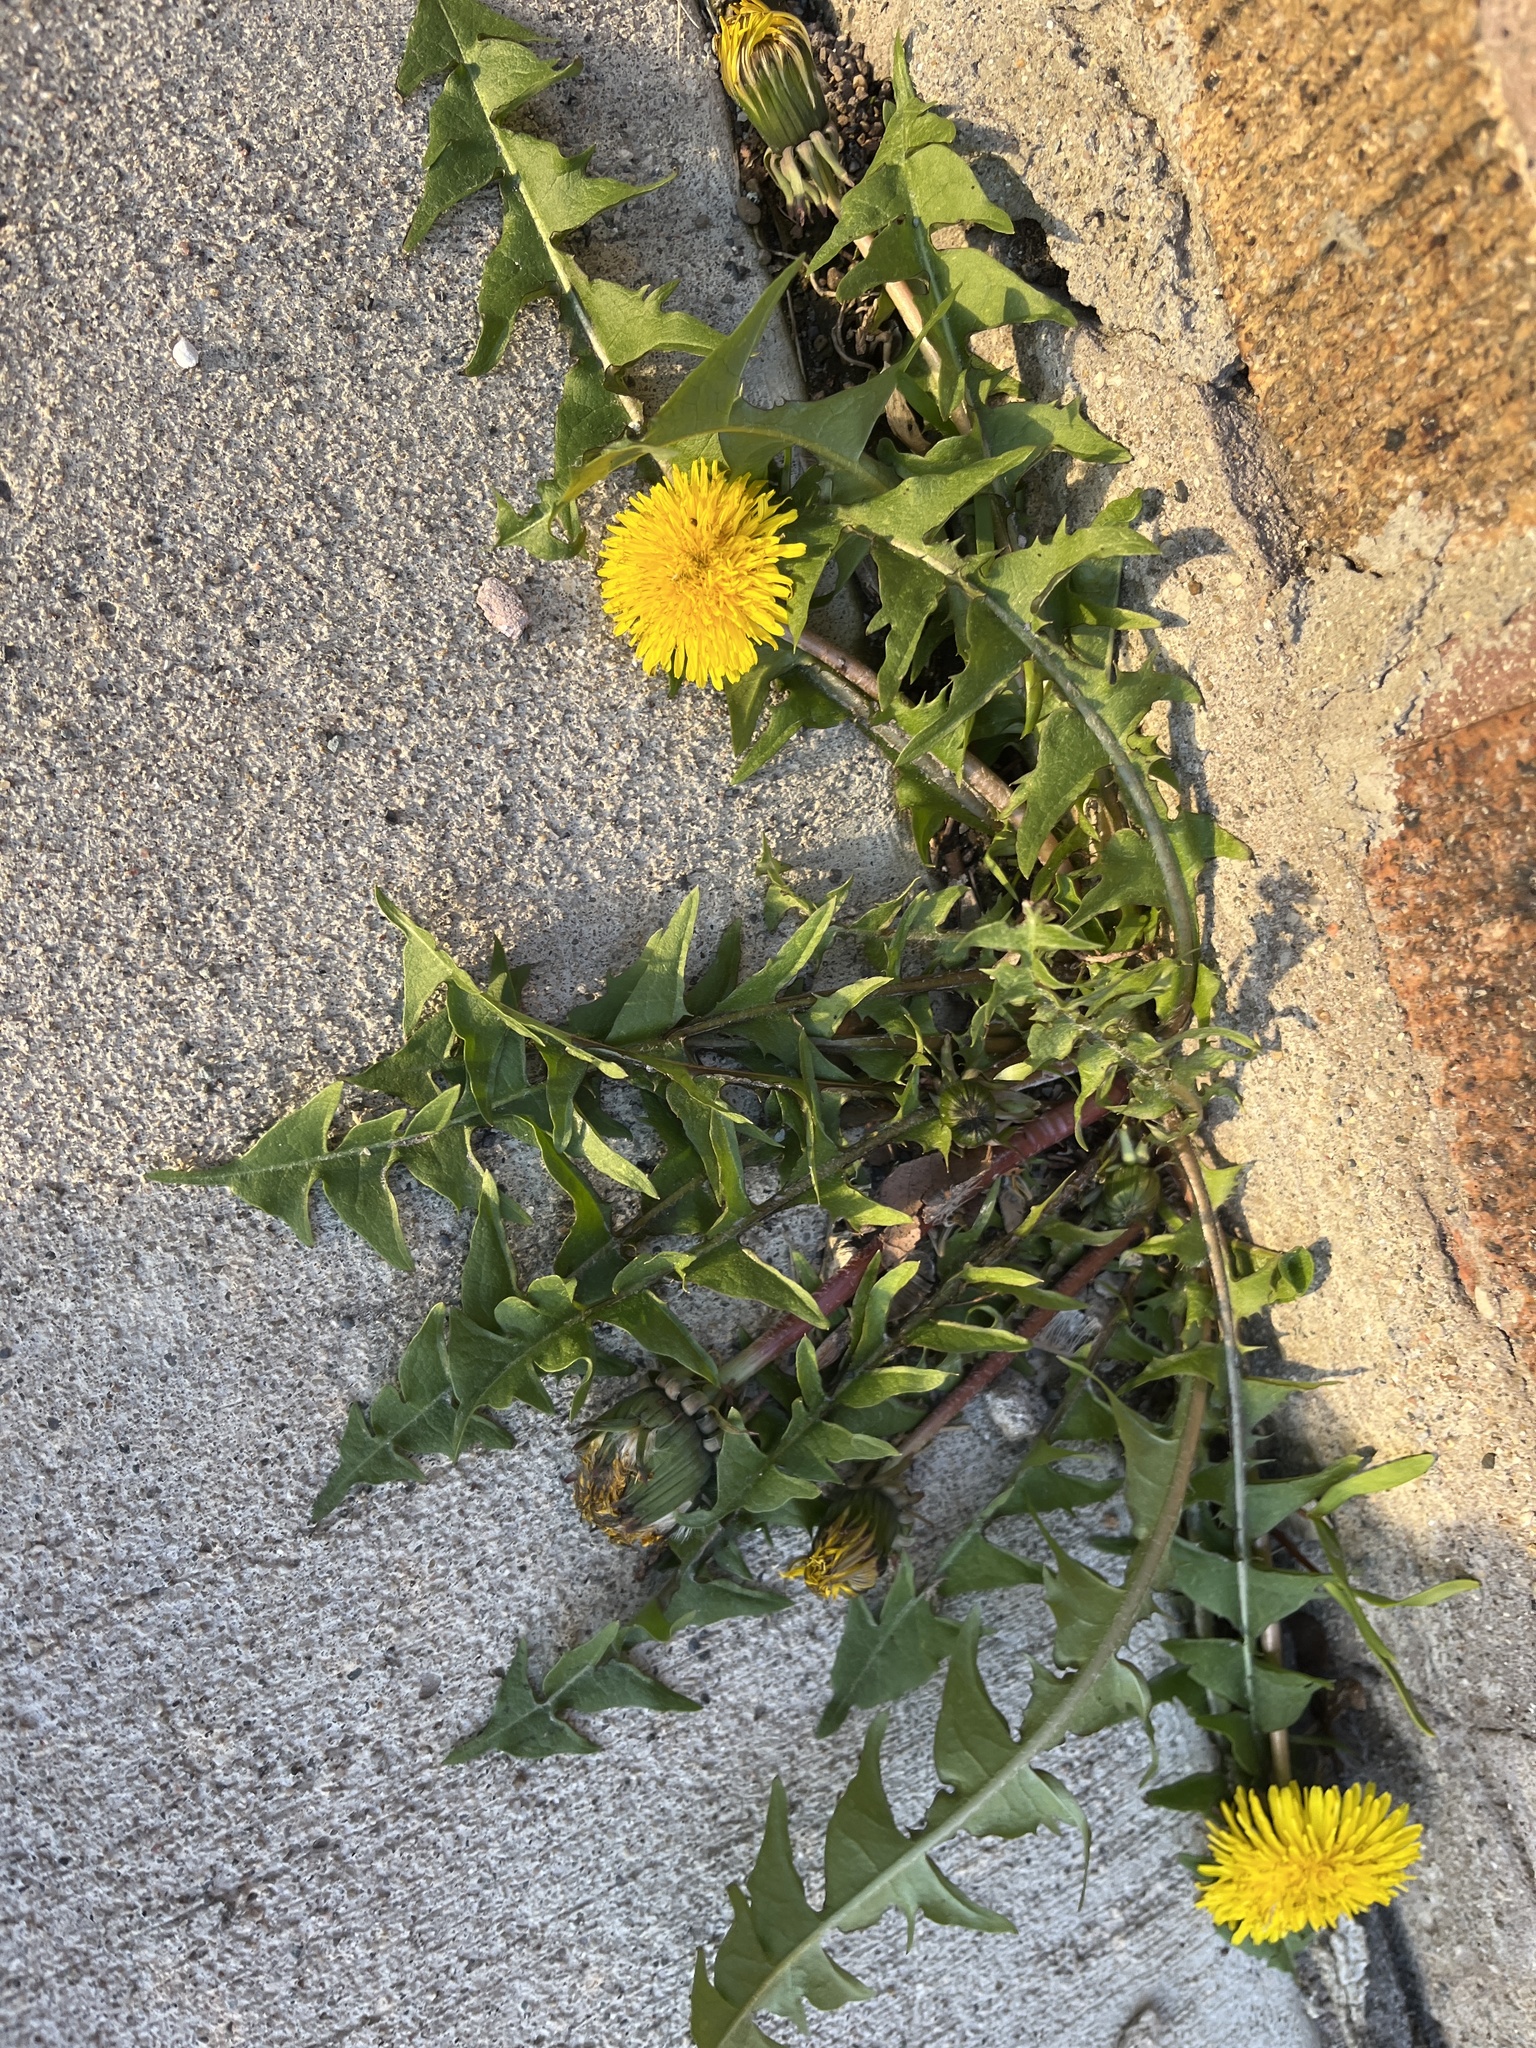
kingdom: Plantae
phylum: Tracheophyta
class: Magnoliopsida
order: Asterales
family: Asteraceae
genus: Taraxacum
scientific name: Taraxacum officinale
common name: Common dandelion
